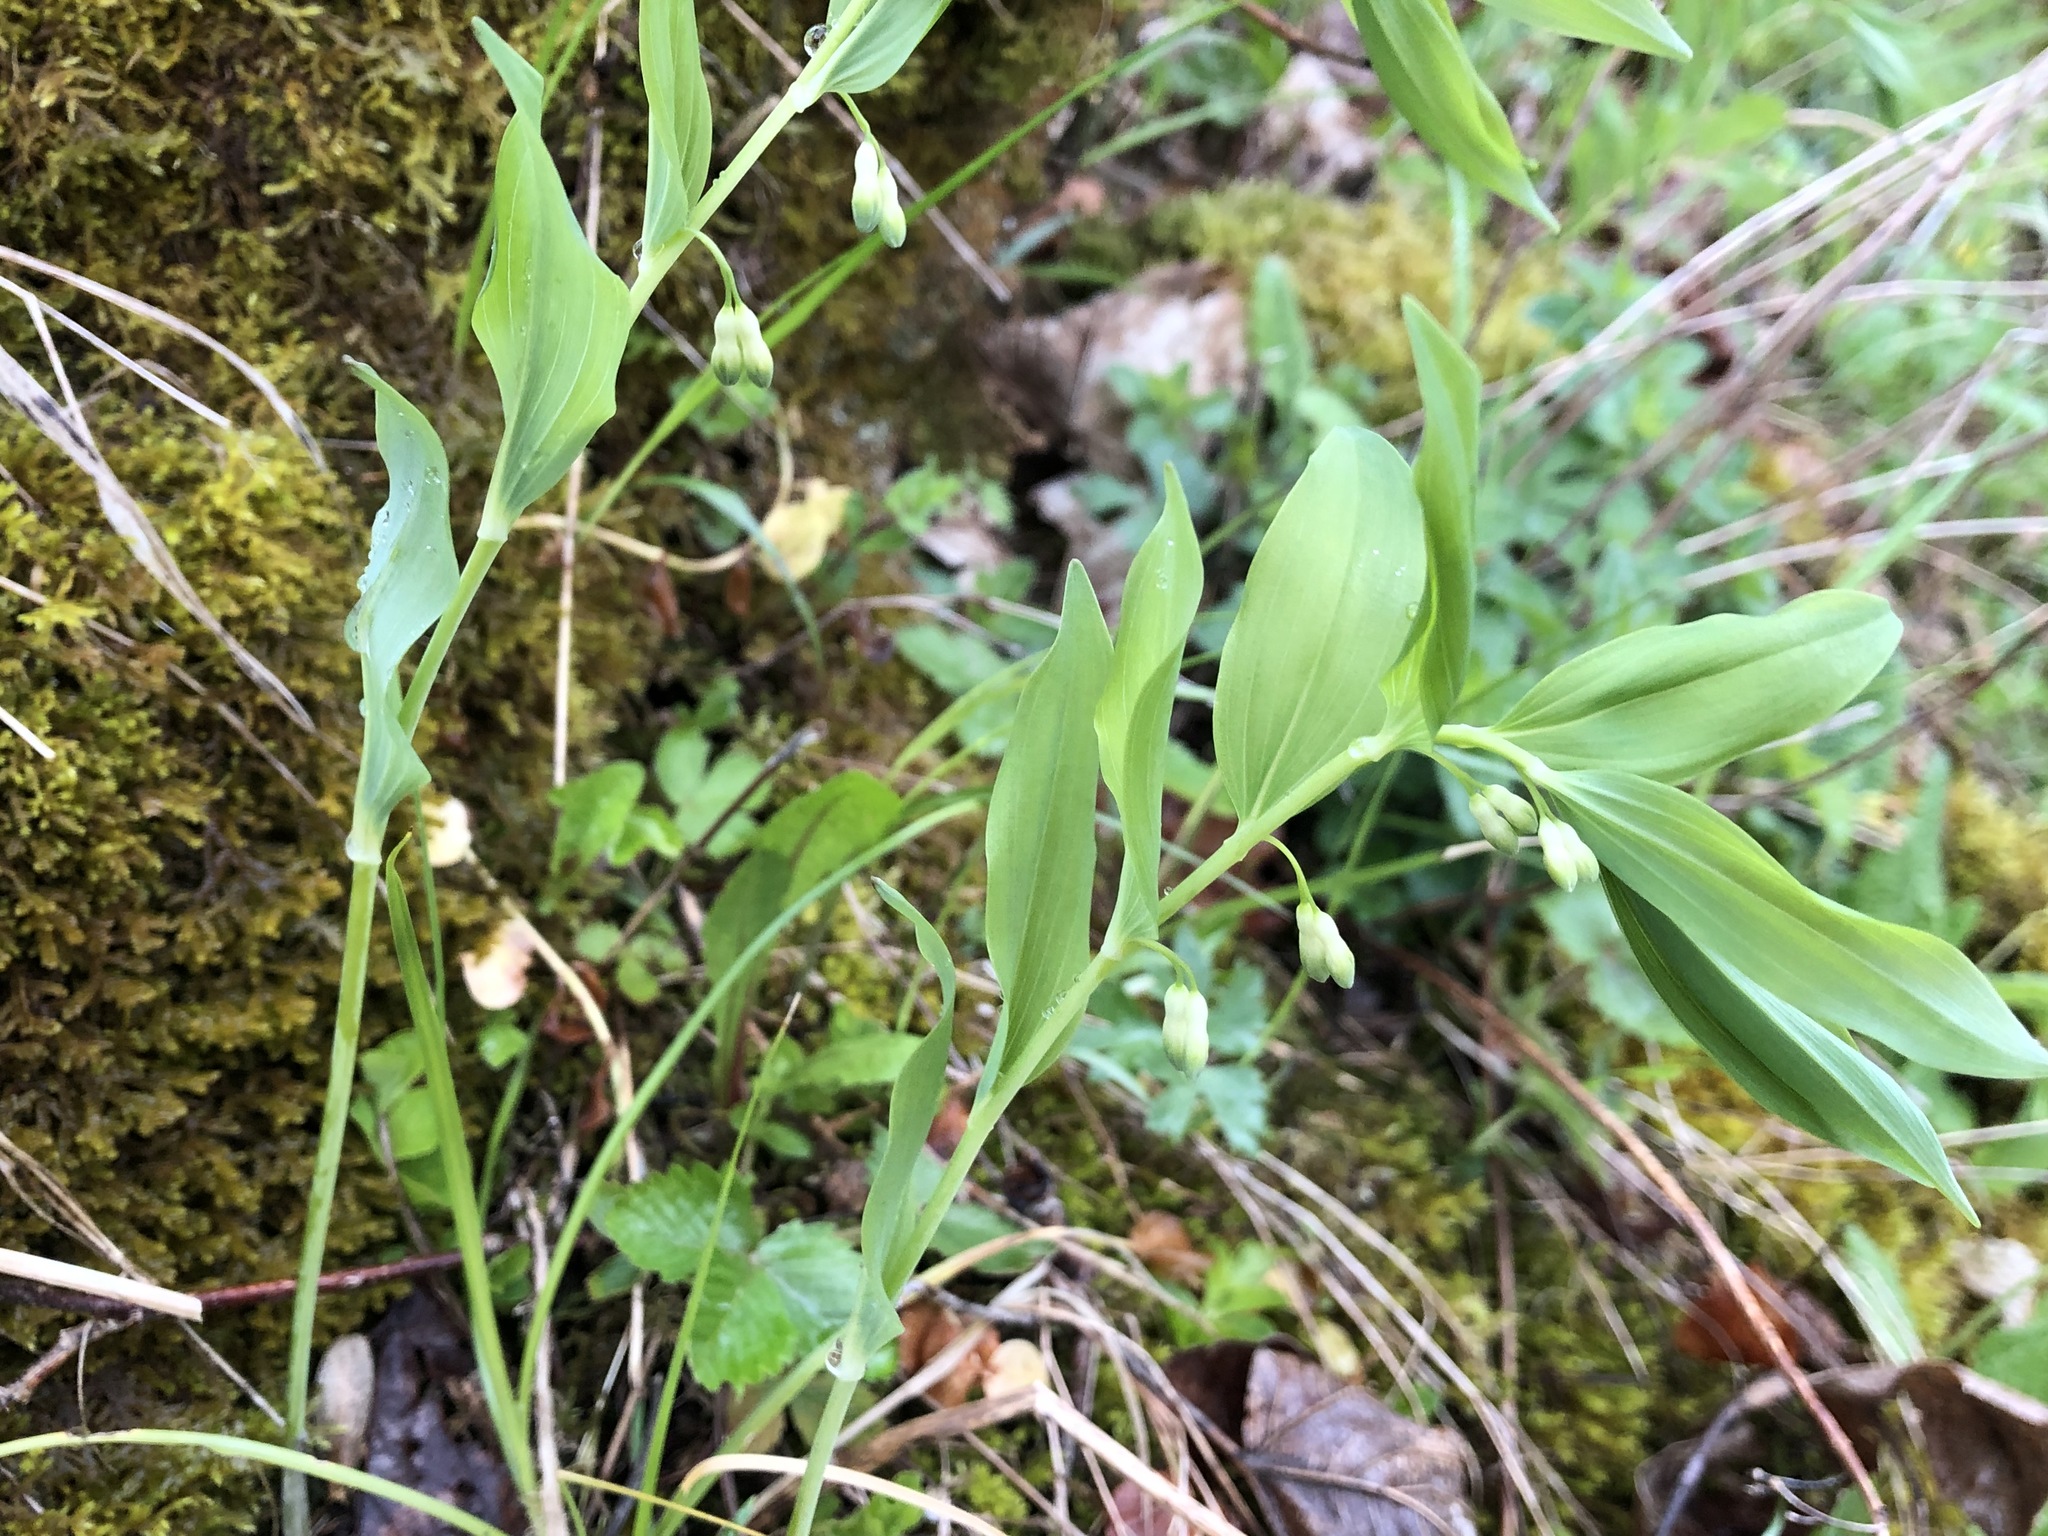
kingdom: Plantae
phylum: Tracheophyta
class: Liliopsida
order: Asparagales
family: Asparagaceae
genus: Polygonatum
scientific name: Polygonatum multiflorum
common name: Solomon's-seal
